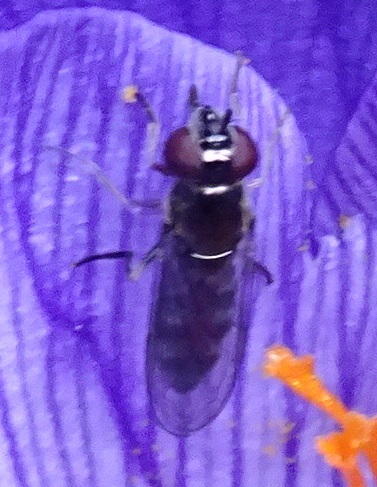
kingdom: Animalia
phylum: Arthropoda
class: Insecta
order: Diptera
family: Syrphidae
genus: Platycheirus
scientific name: Platycheirus albimanus
